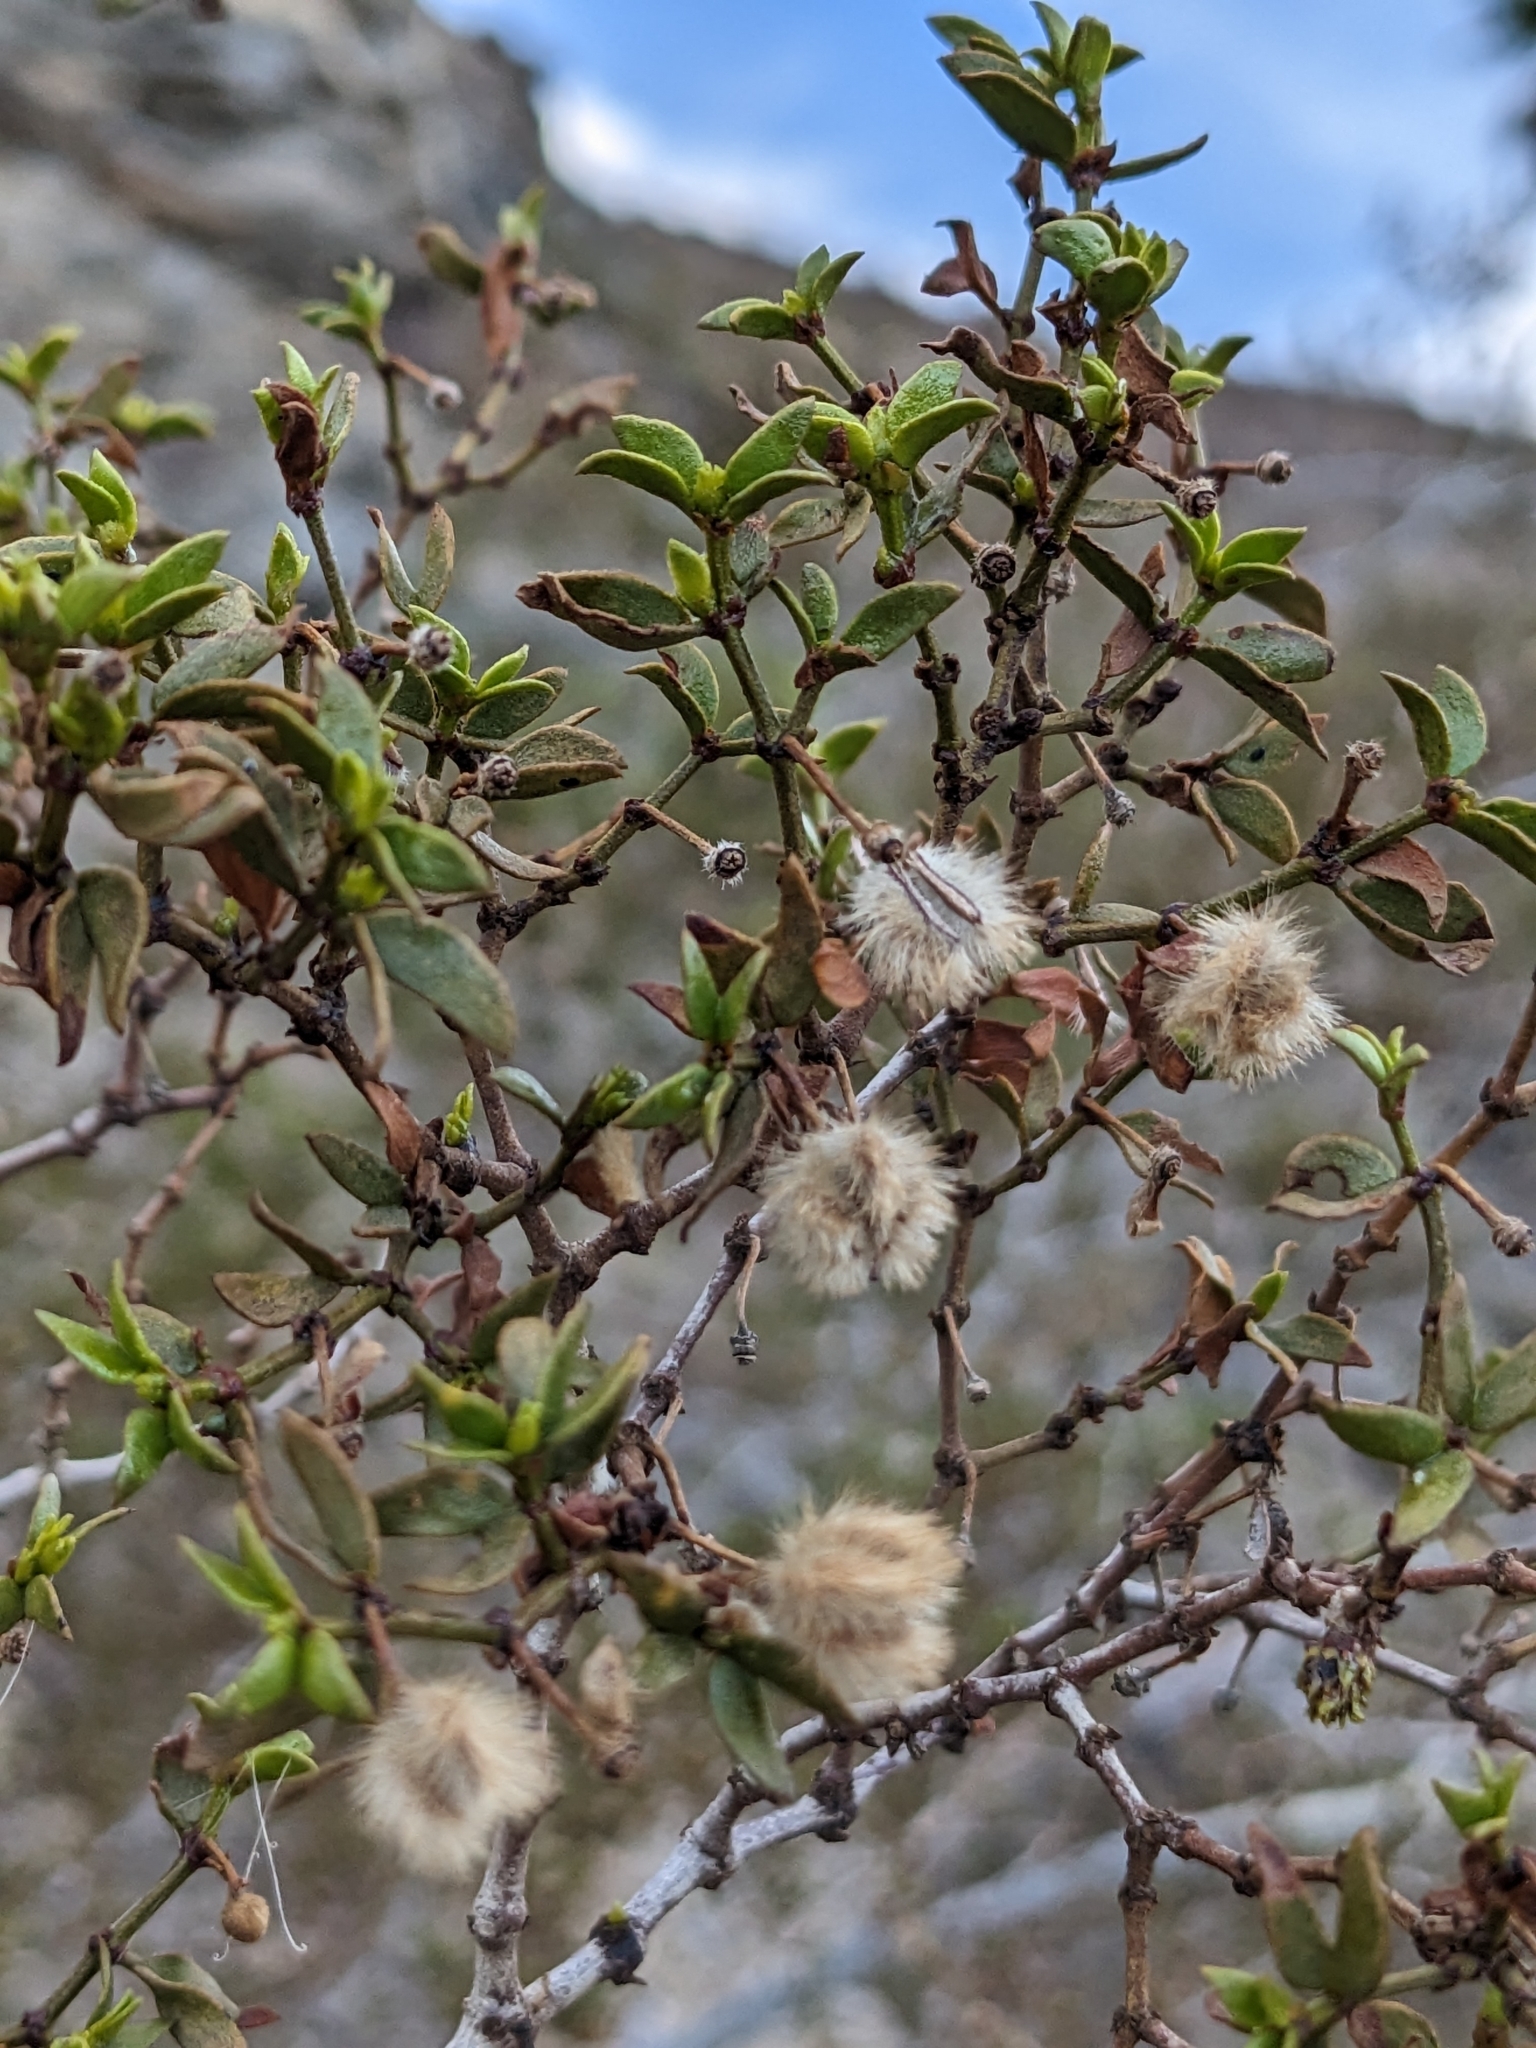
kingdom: Plantae
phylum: Tracheophyta
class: Magnoliopsida
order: Zygophyllales
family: Zygophyllaceae
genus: Larrea
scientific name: Larrea tridentata
